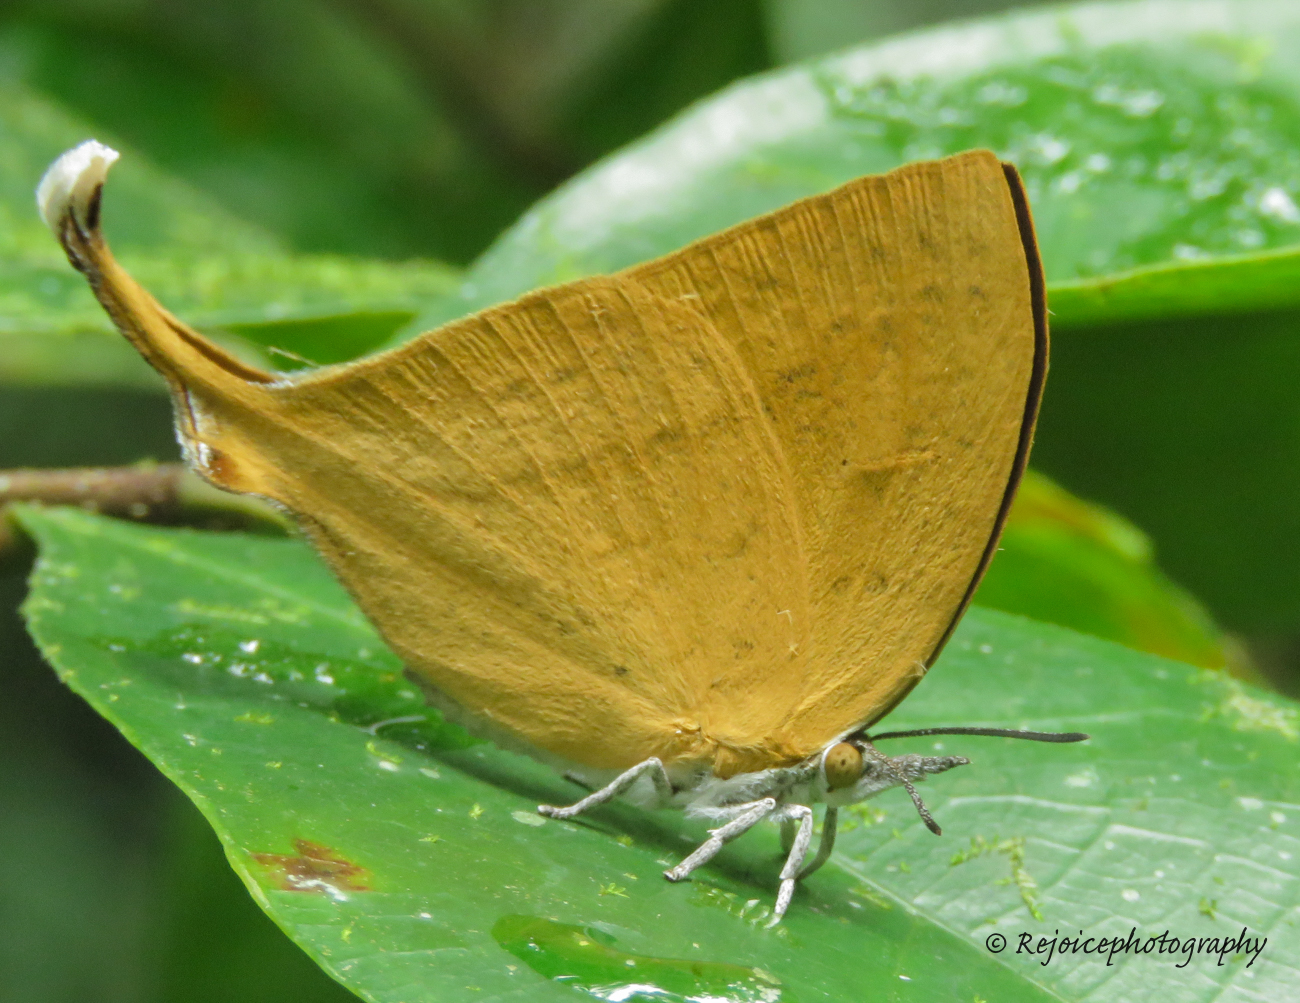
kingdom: Animalia
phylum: Arthropoda
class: Insecta
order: Lepidoptera
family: Lycaenidae
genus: Loxura
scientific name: Loxura atymnus
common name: Common yamfly
